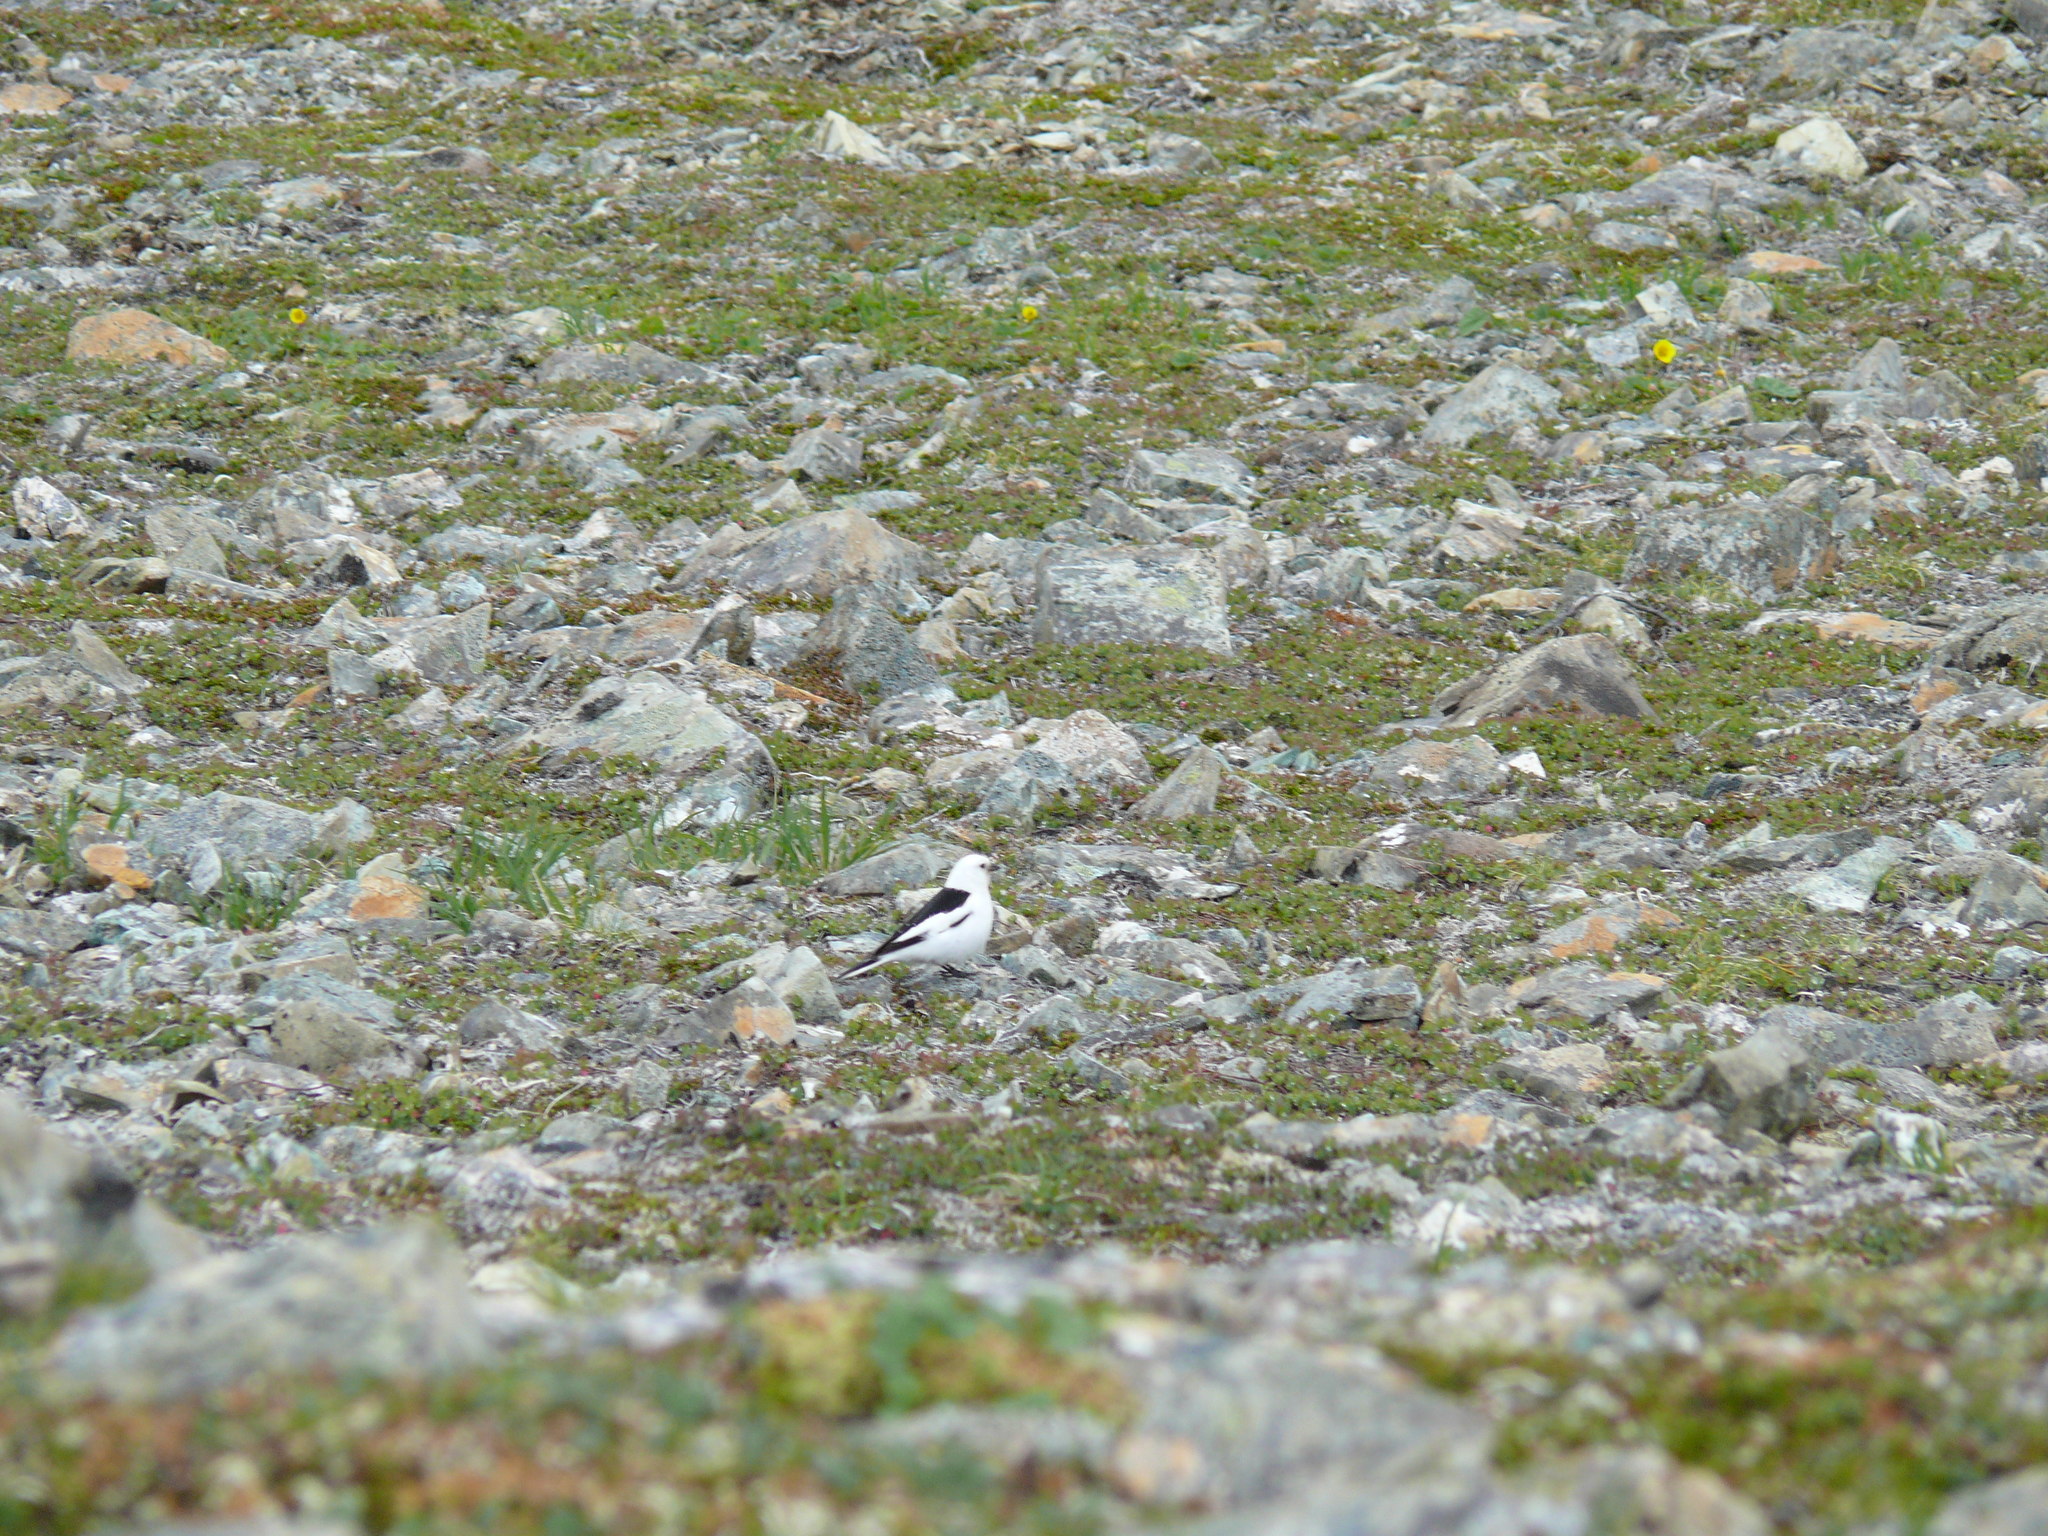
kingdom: Animalia
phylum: Chordata
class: Aves
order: Passeriformes
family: Calcariidae
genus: Plectrophenax
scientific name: Plectrophenax nivalis
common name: Snow bunting
